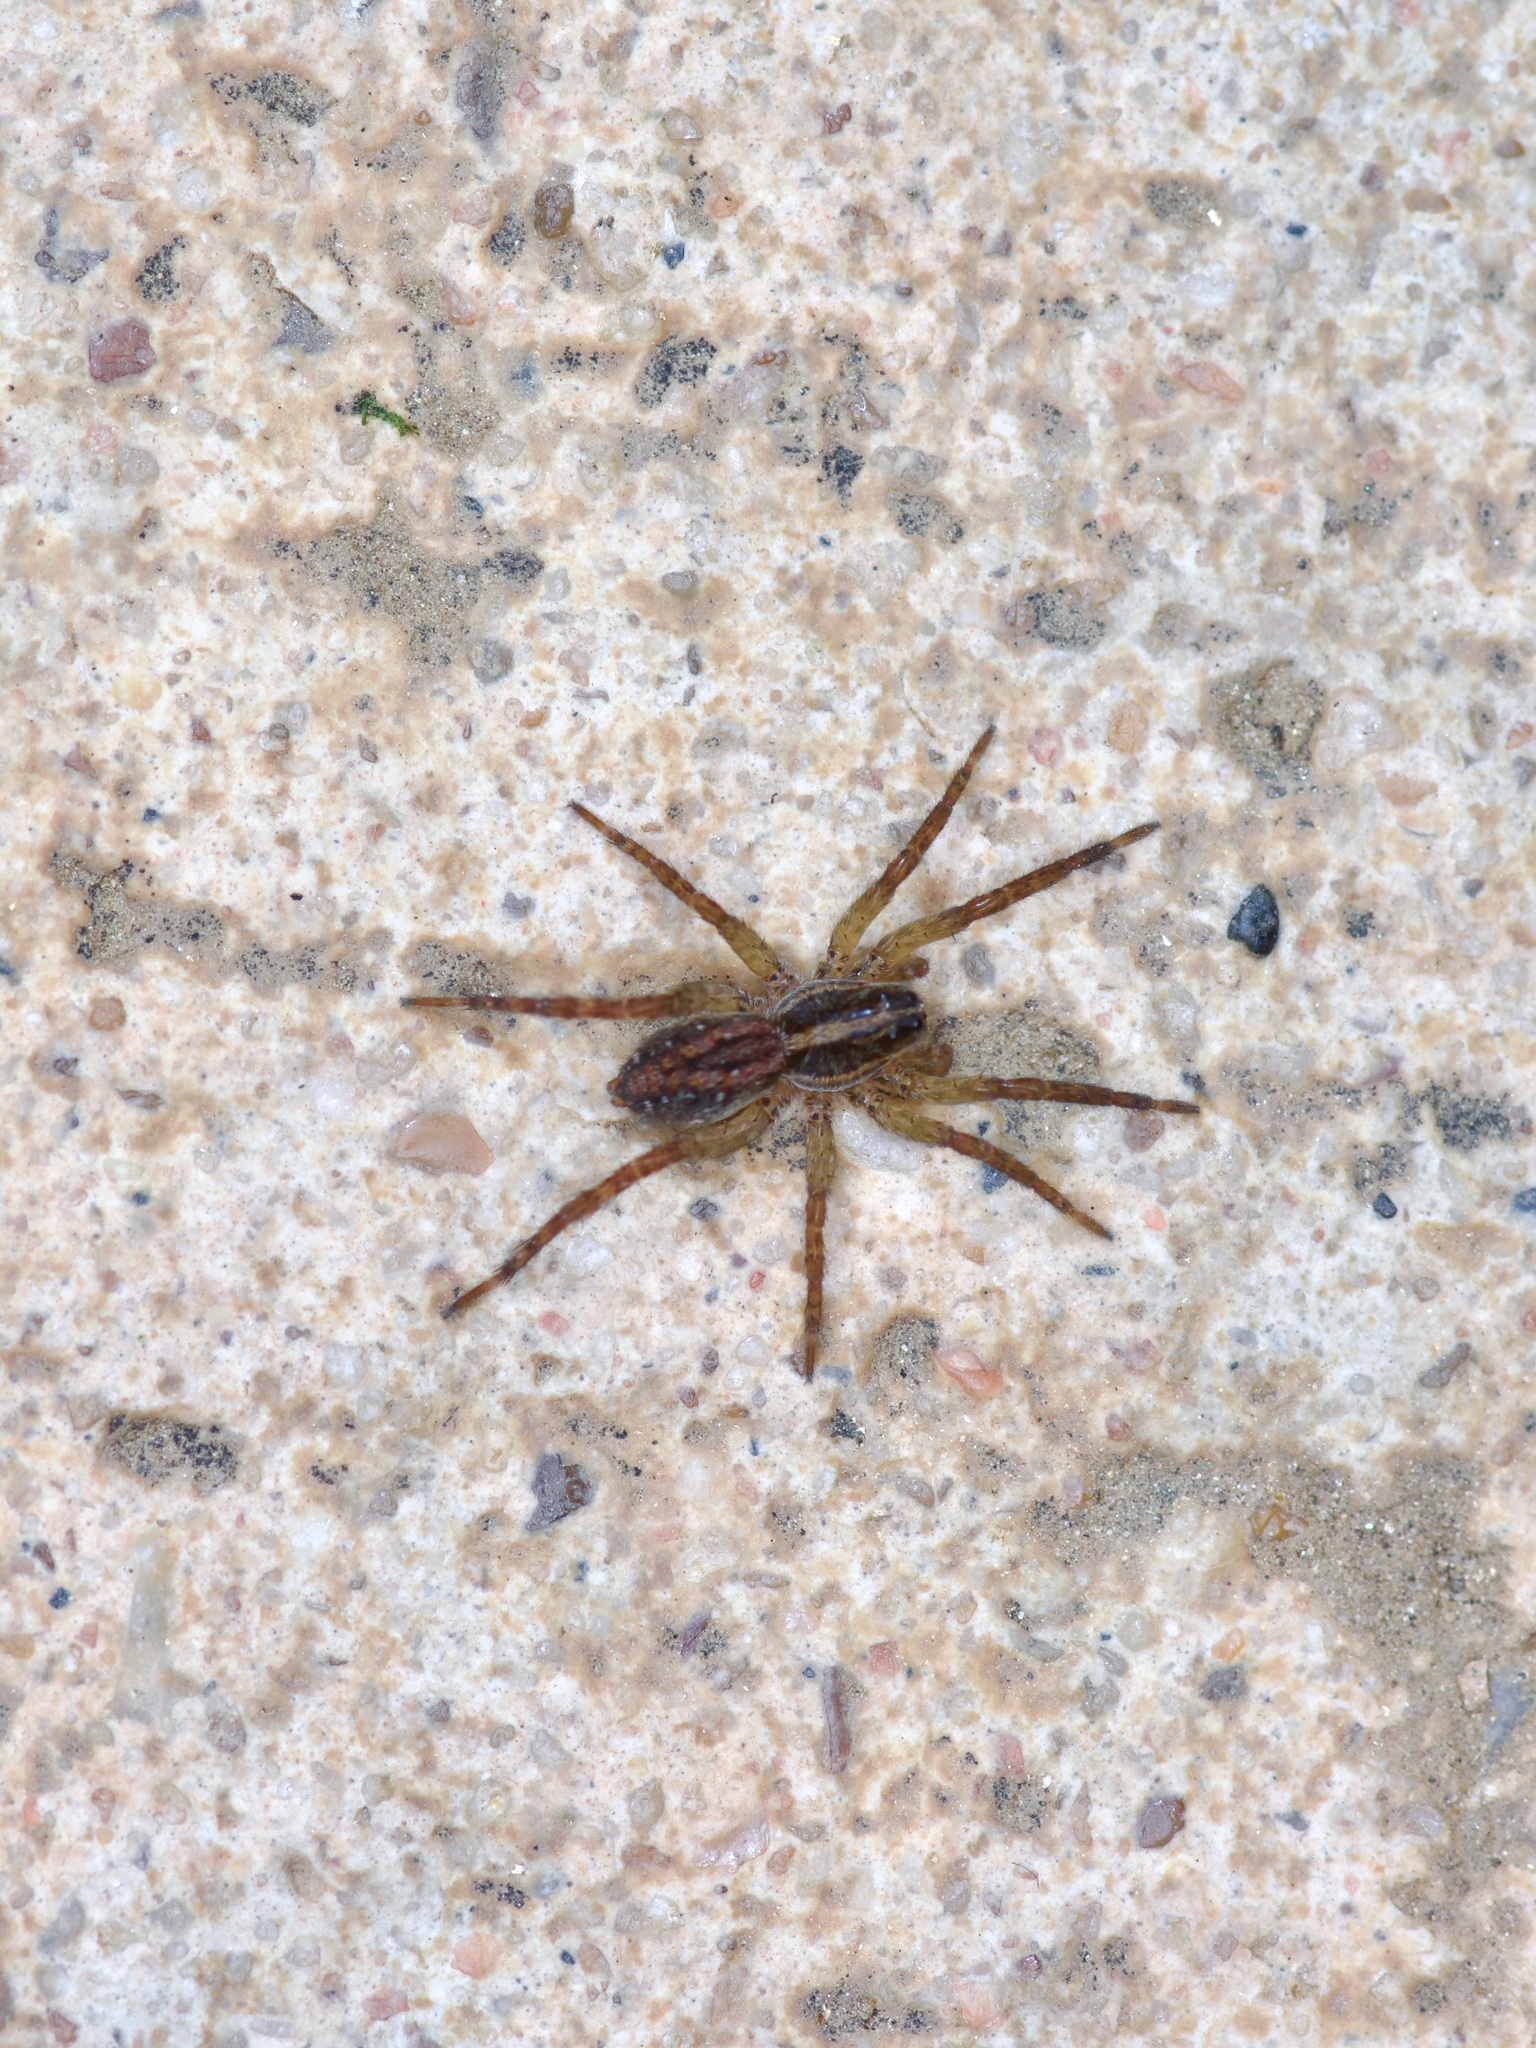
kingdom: Animalia
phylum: Arthropoda
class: Arachnida
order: Araneae
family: Lycosidae
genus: Tigrosa
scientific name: Tigrosa annexa
